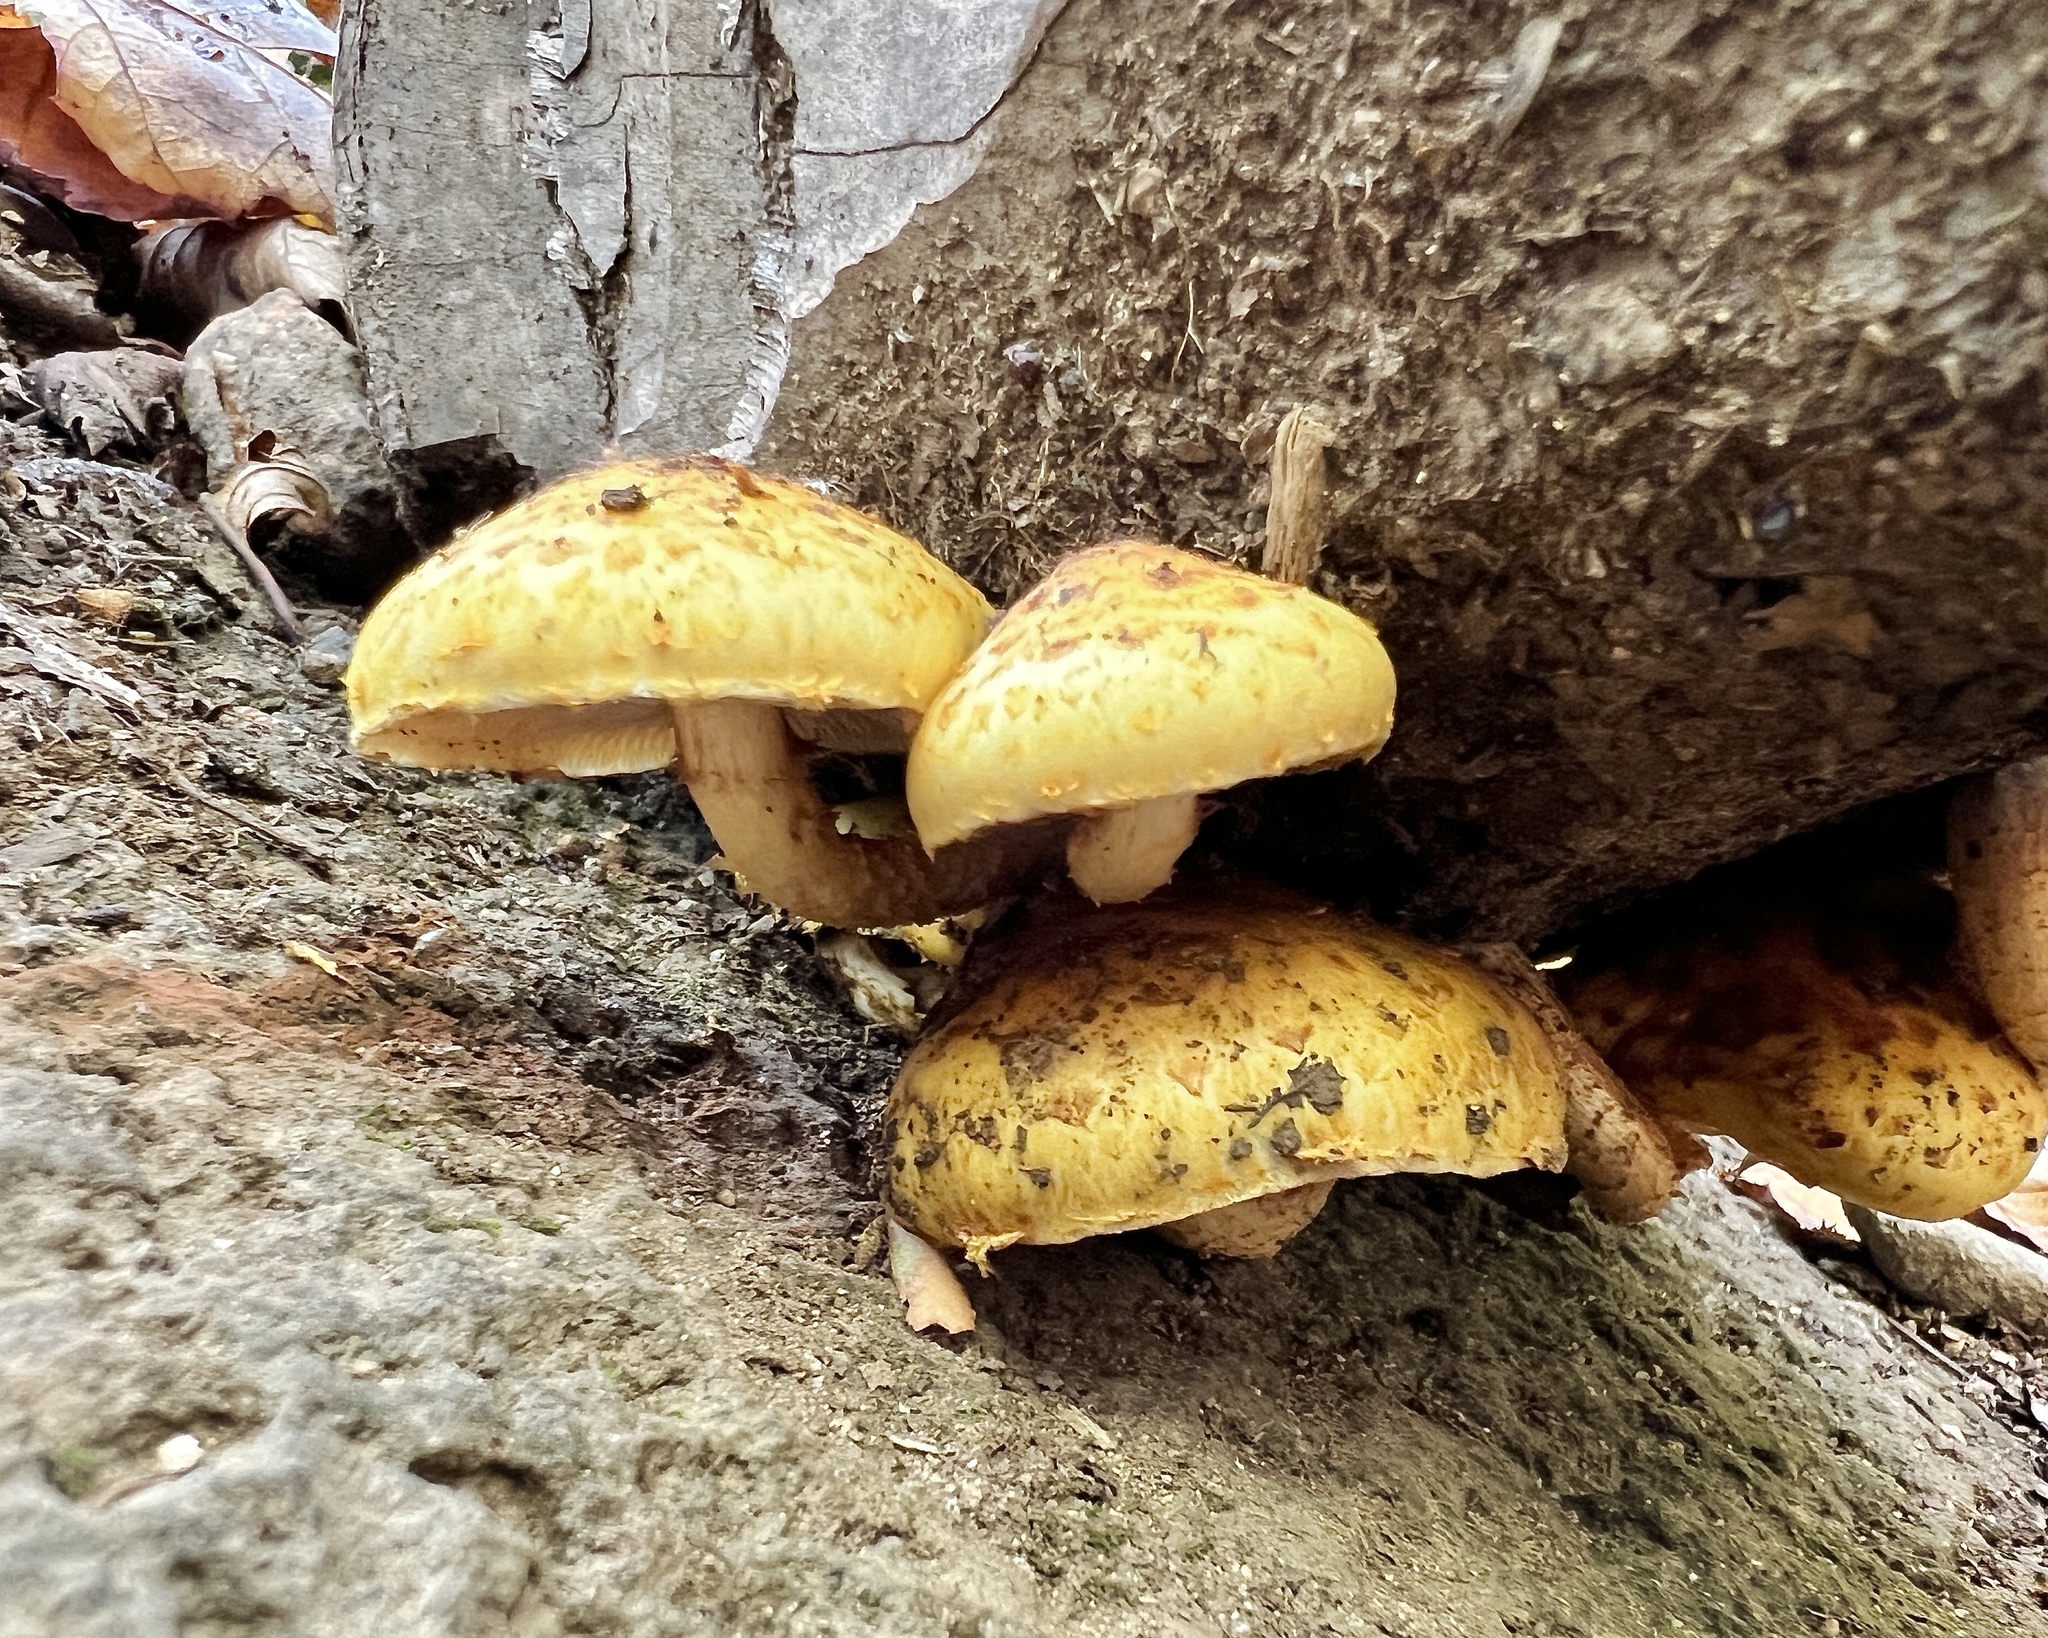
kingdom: Fungi
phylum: Basidiomycota
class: Agaricomycetes
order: Agaricales
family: Strophariaceae
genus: Pholiota
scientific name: Pholiota aurivella
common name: Golden scalycap
